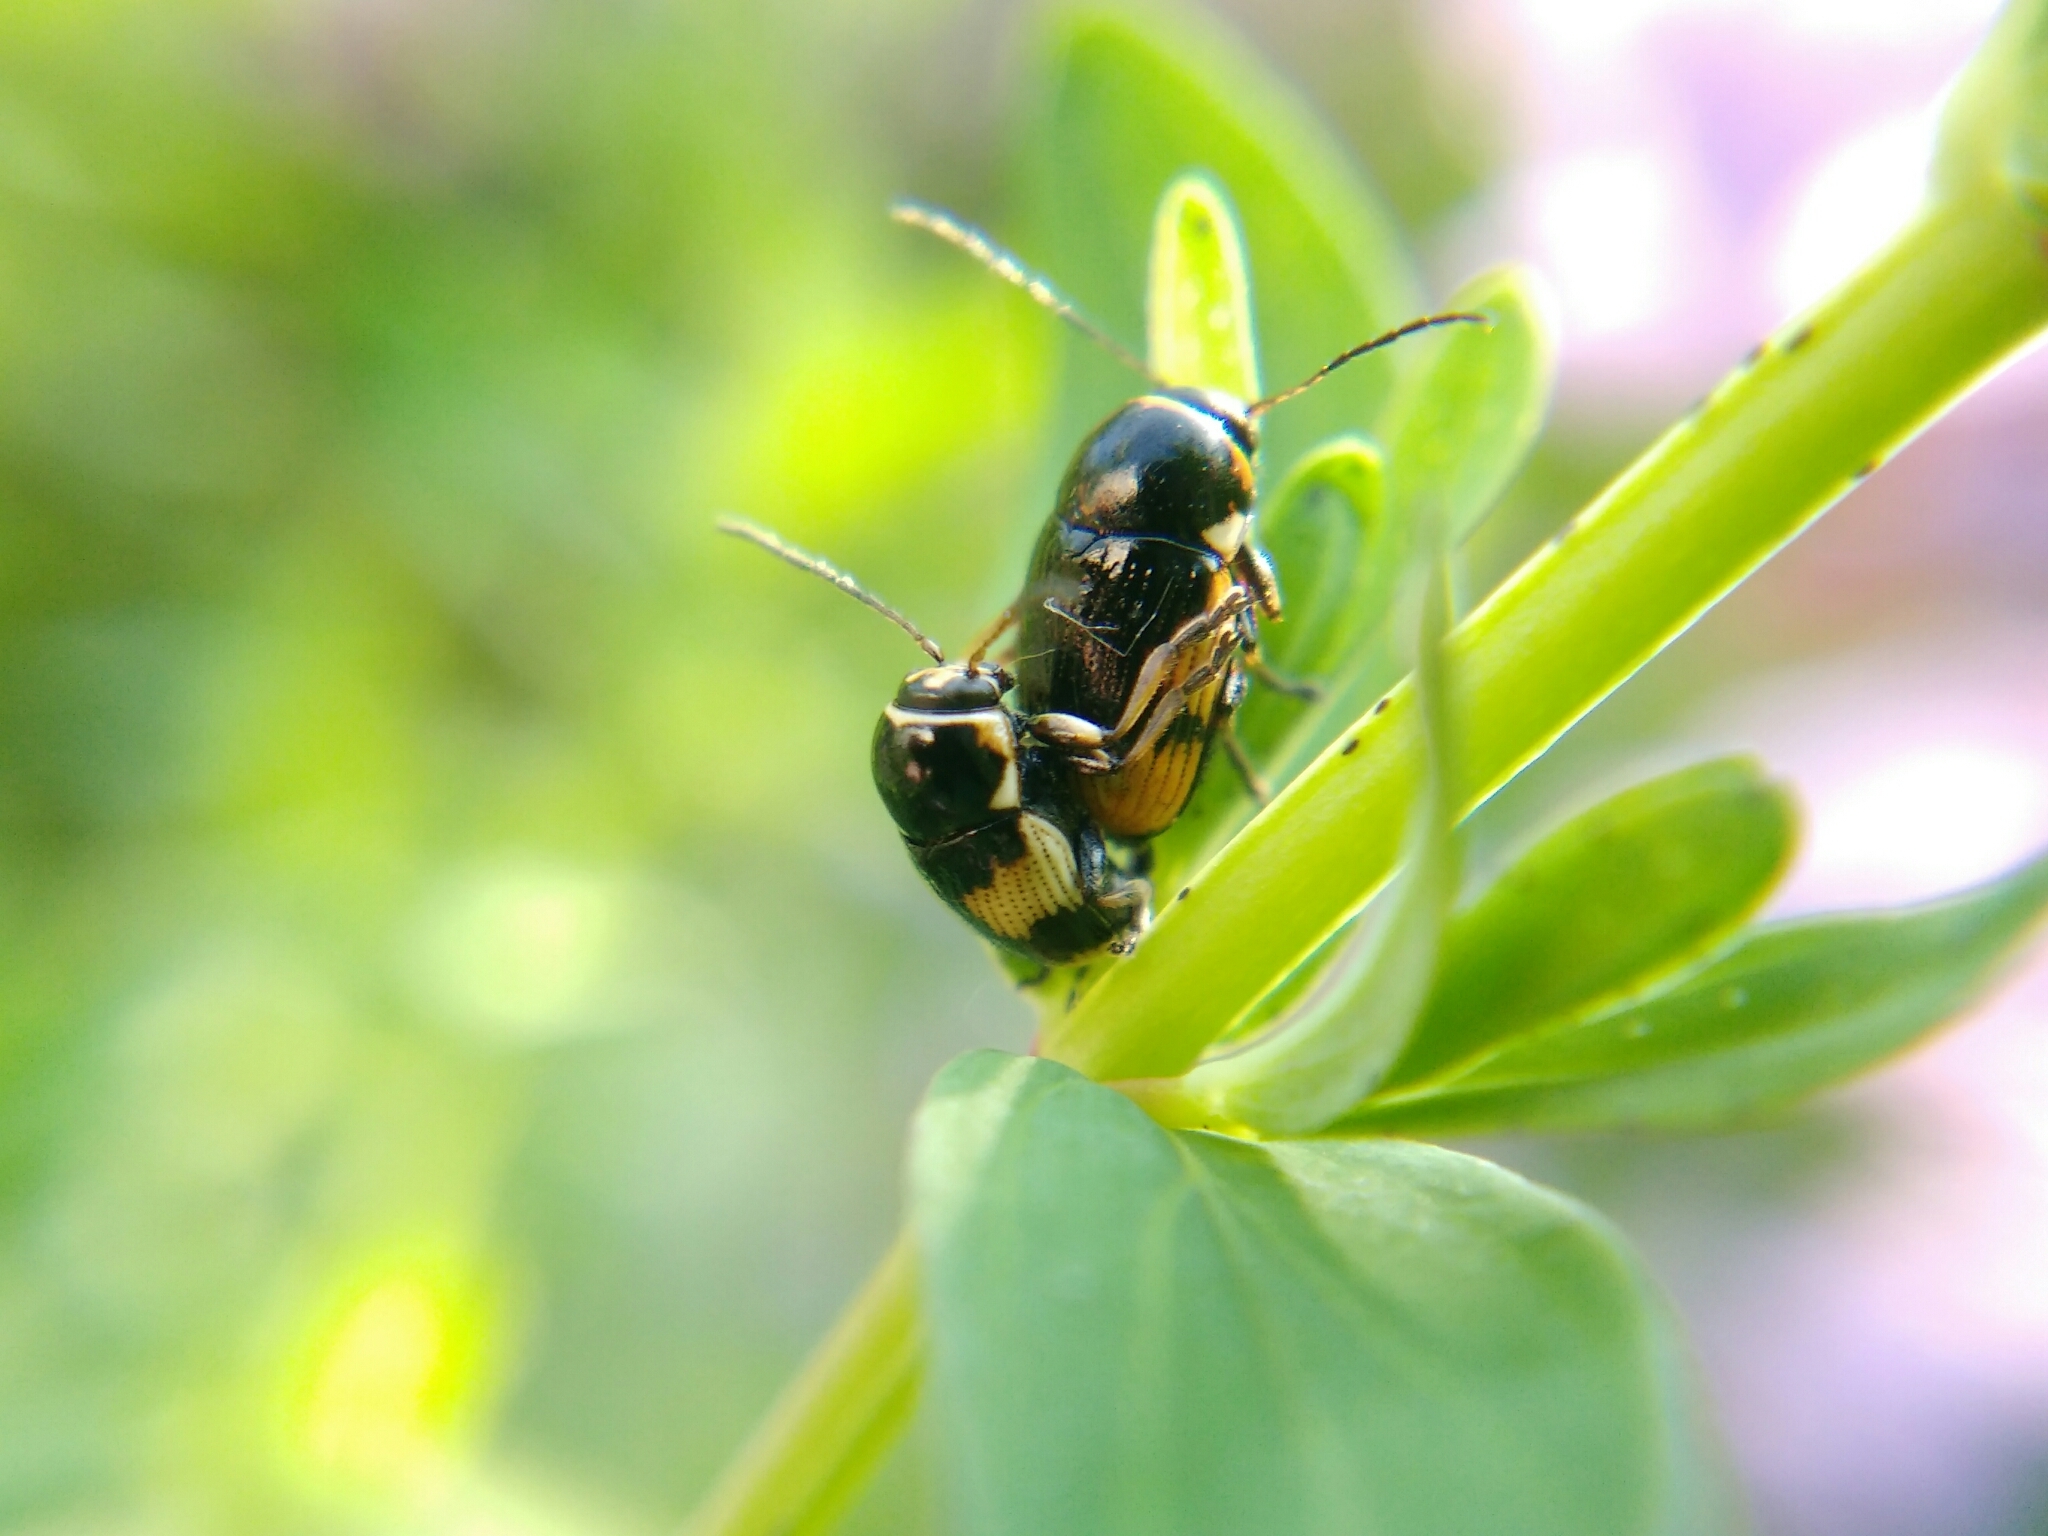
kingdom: Animalia
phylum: Arthropoda
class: Insecta
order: Coleoptera
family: Chrysomelidae
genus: Cryptocephalus
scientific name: Cryptocephalus moraei
